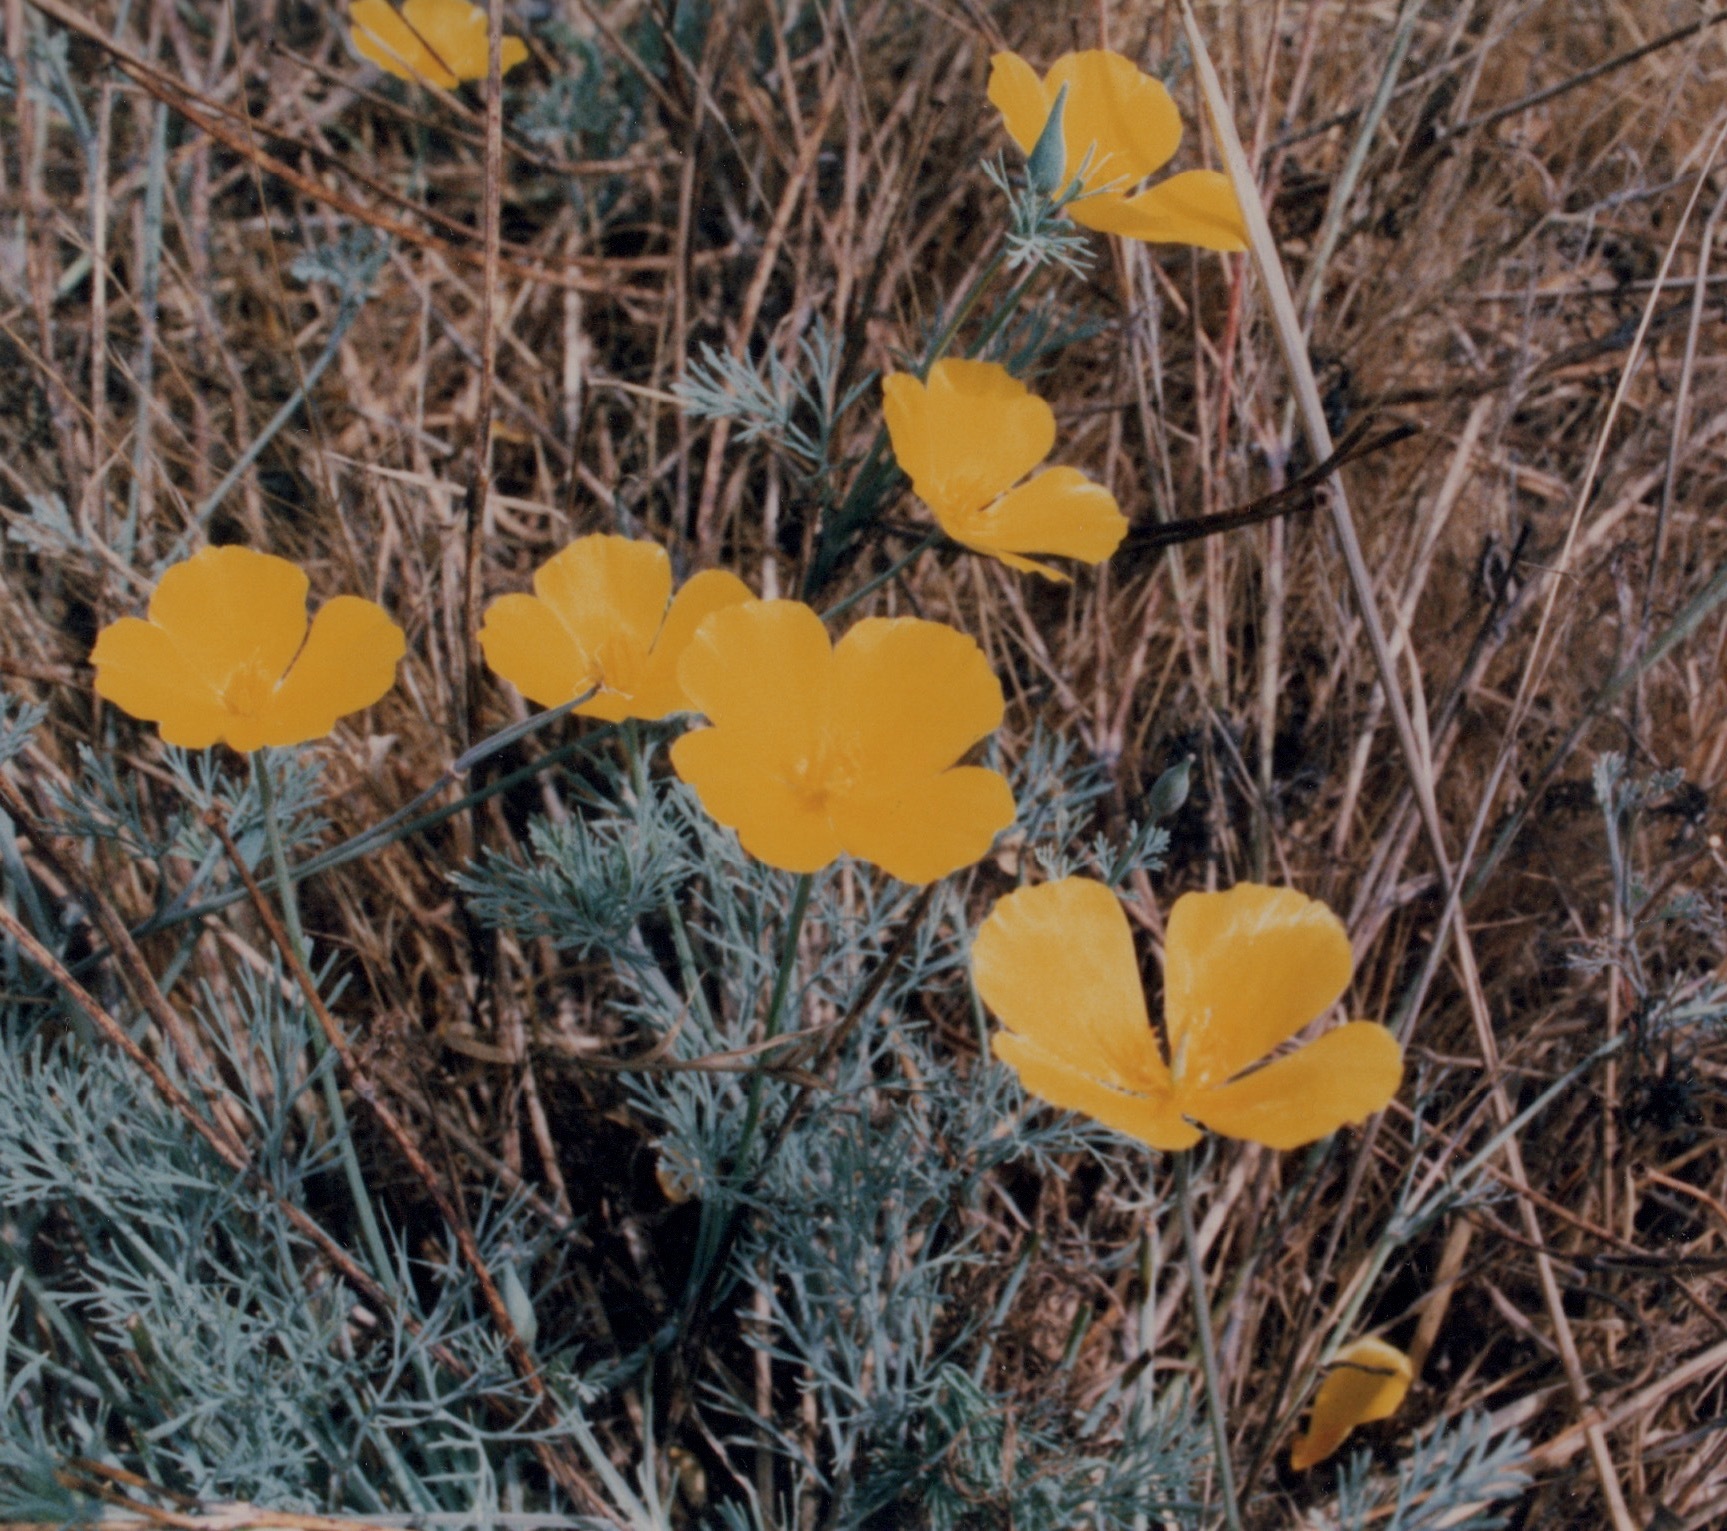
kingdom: Plantae
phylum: Tracheophyta
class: Magnoliopsida
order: Ranunculales
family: Papaveraceae
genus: Eschscholzia
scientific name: Eschscholzia ramosa
